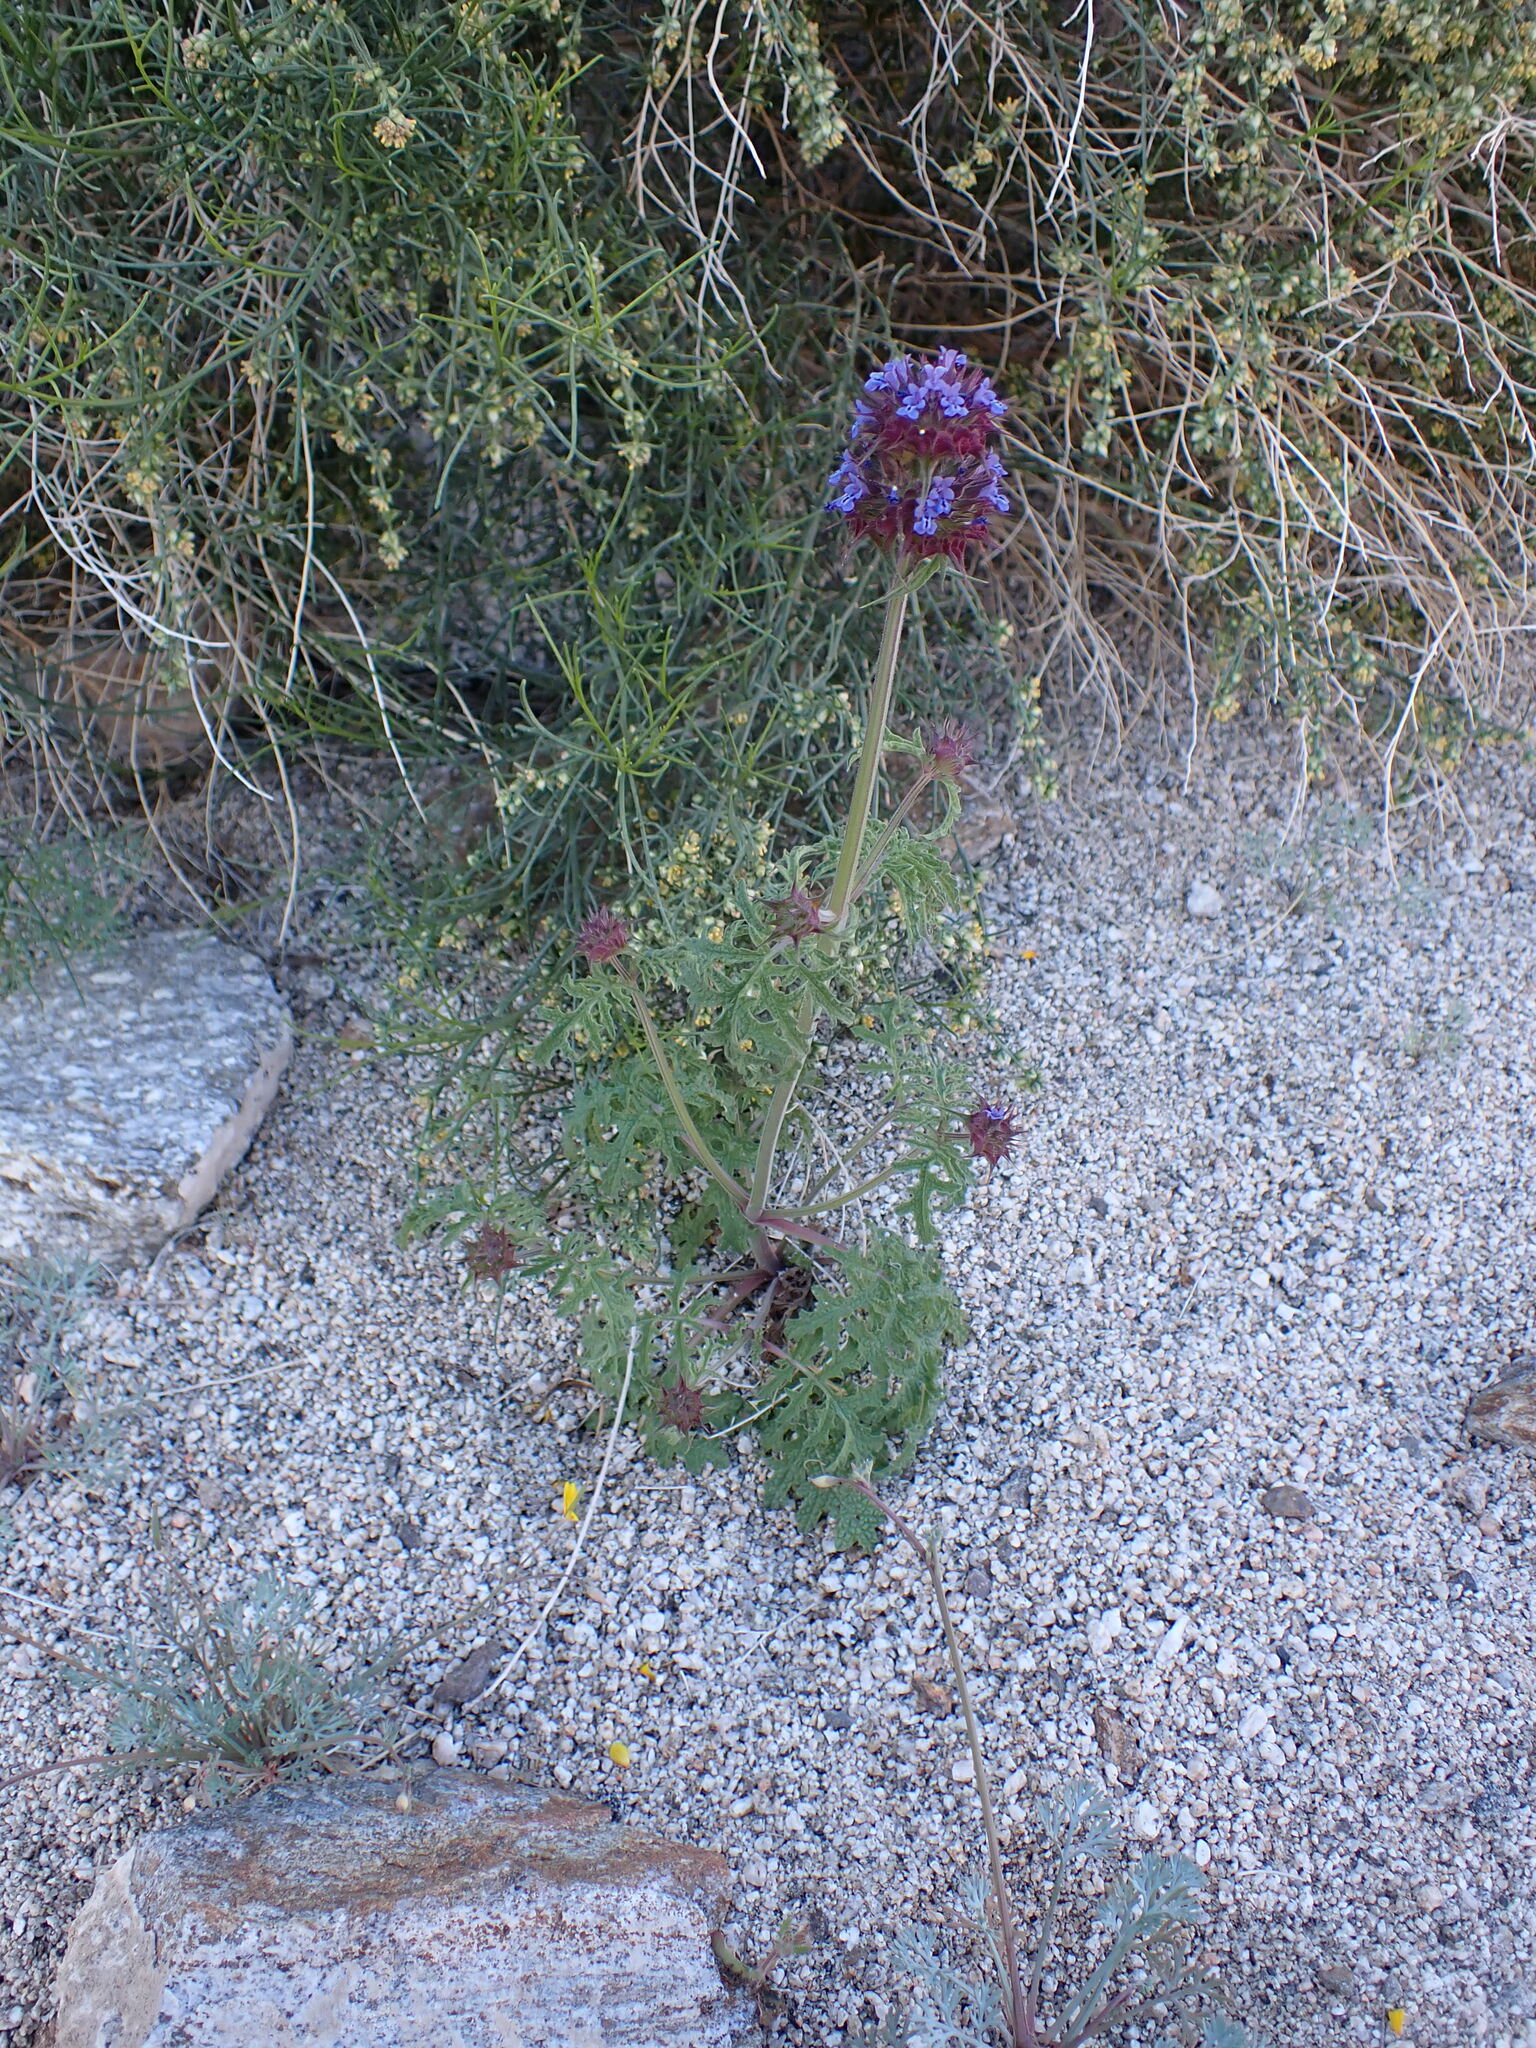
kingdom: Plantae
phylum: Tracheophyta
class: Magnoliopsida
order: Lamiales
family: Lamiaceae
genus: Salvia
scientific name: Salvia columbariae
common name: Chia
